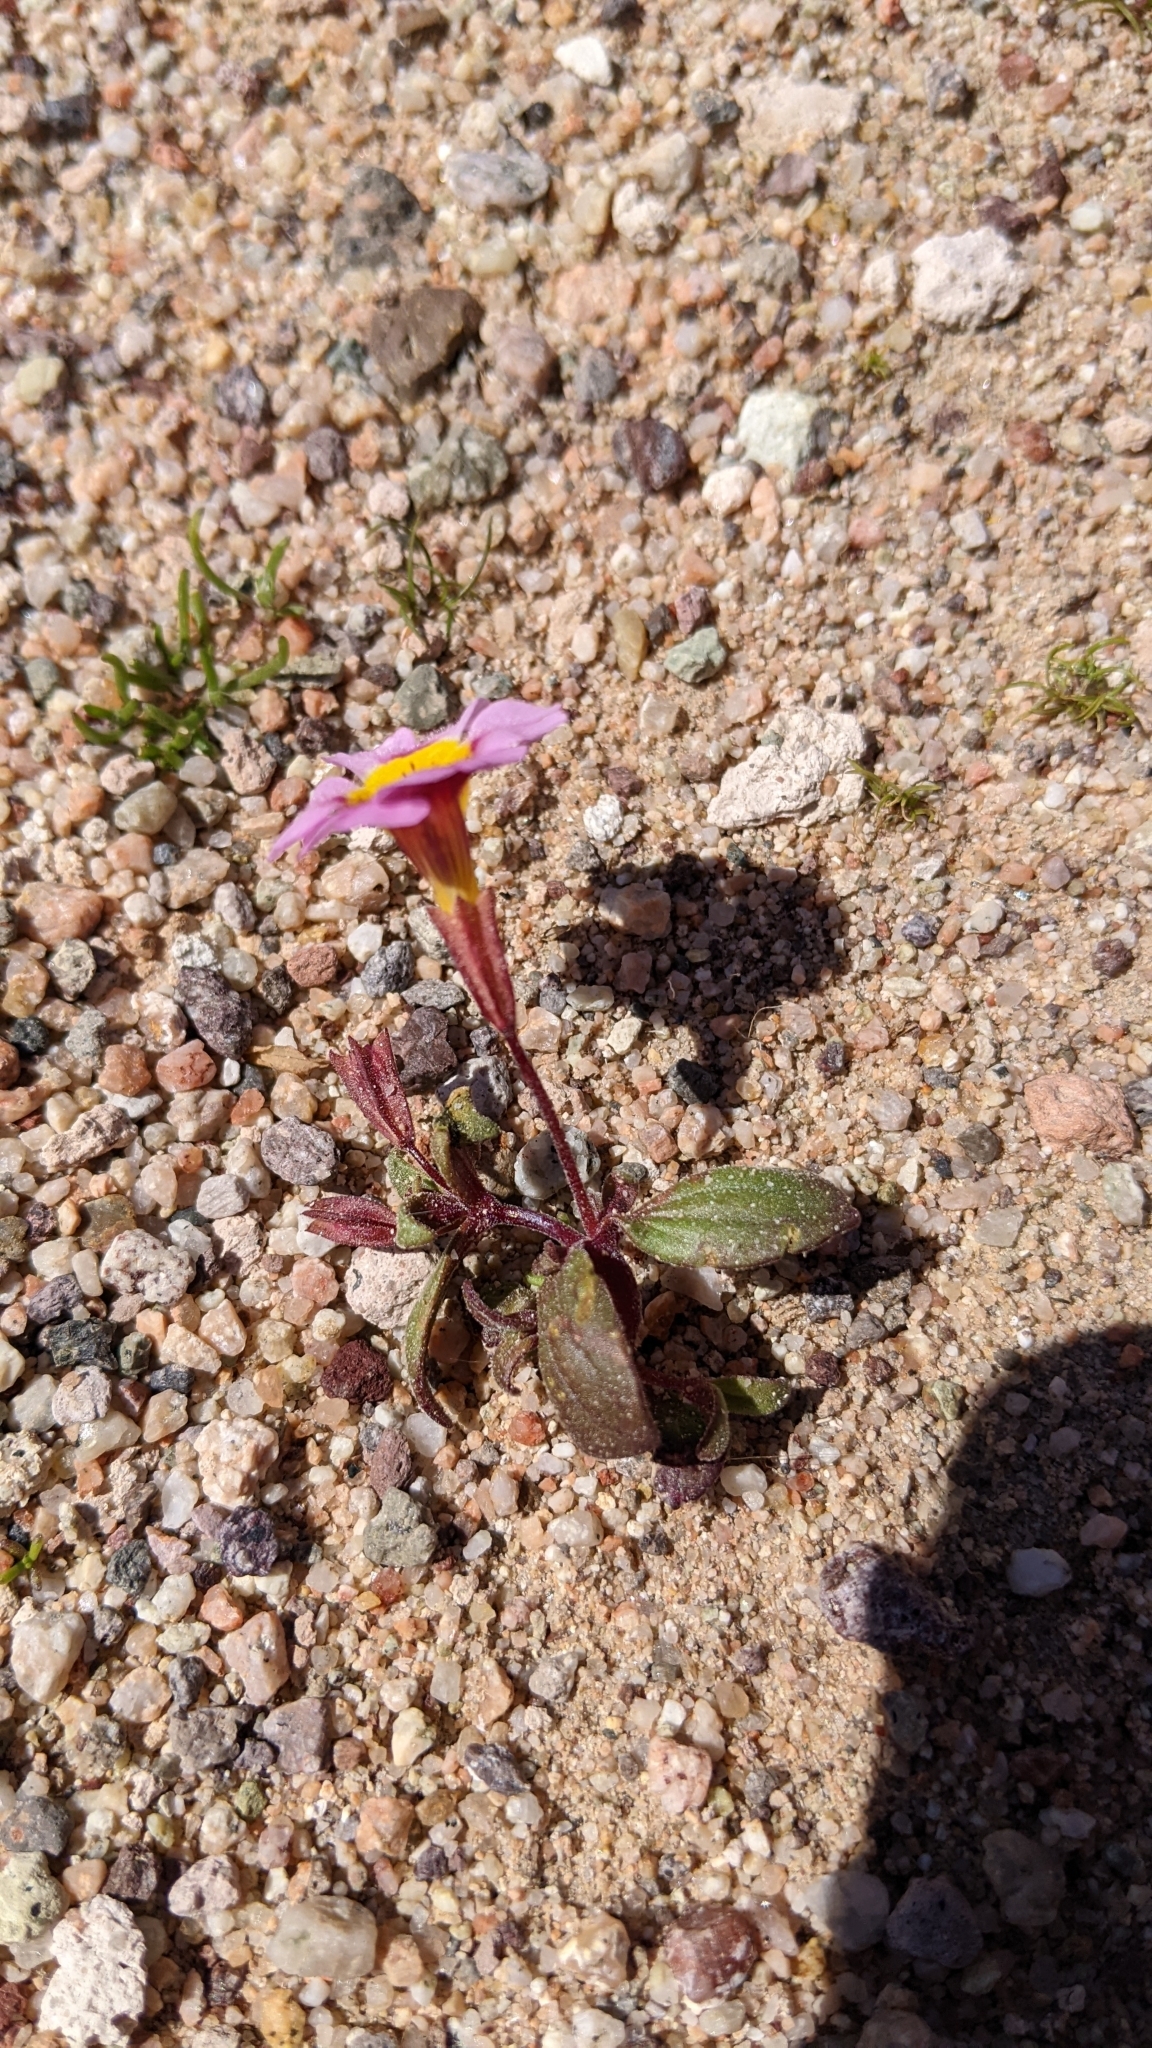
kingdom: Plantae
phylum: Tracheophyta
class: Magnoliopsida
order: Lamiales
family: Phrymaceae
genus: Erythranthe
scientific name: Erythranthe rhodopetra
